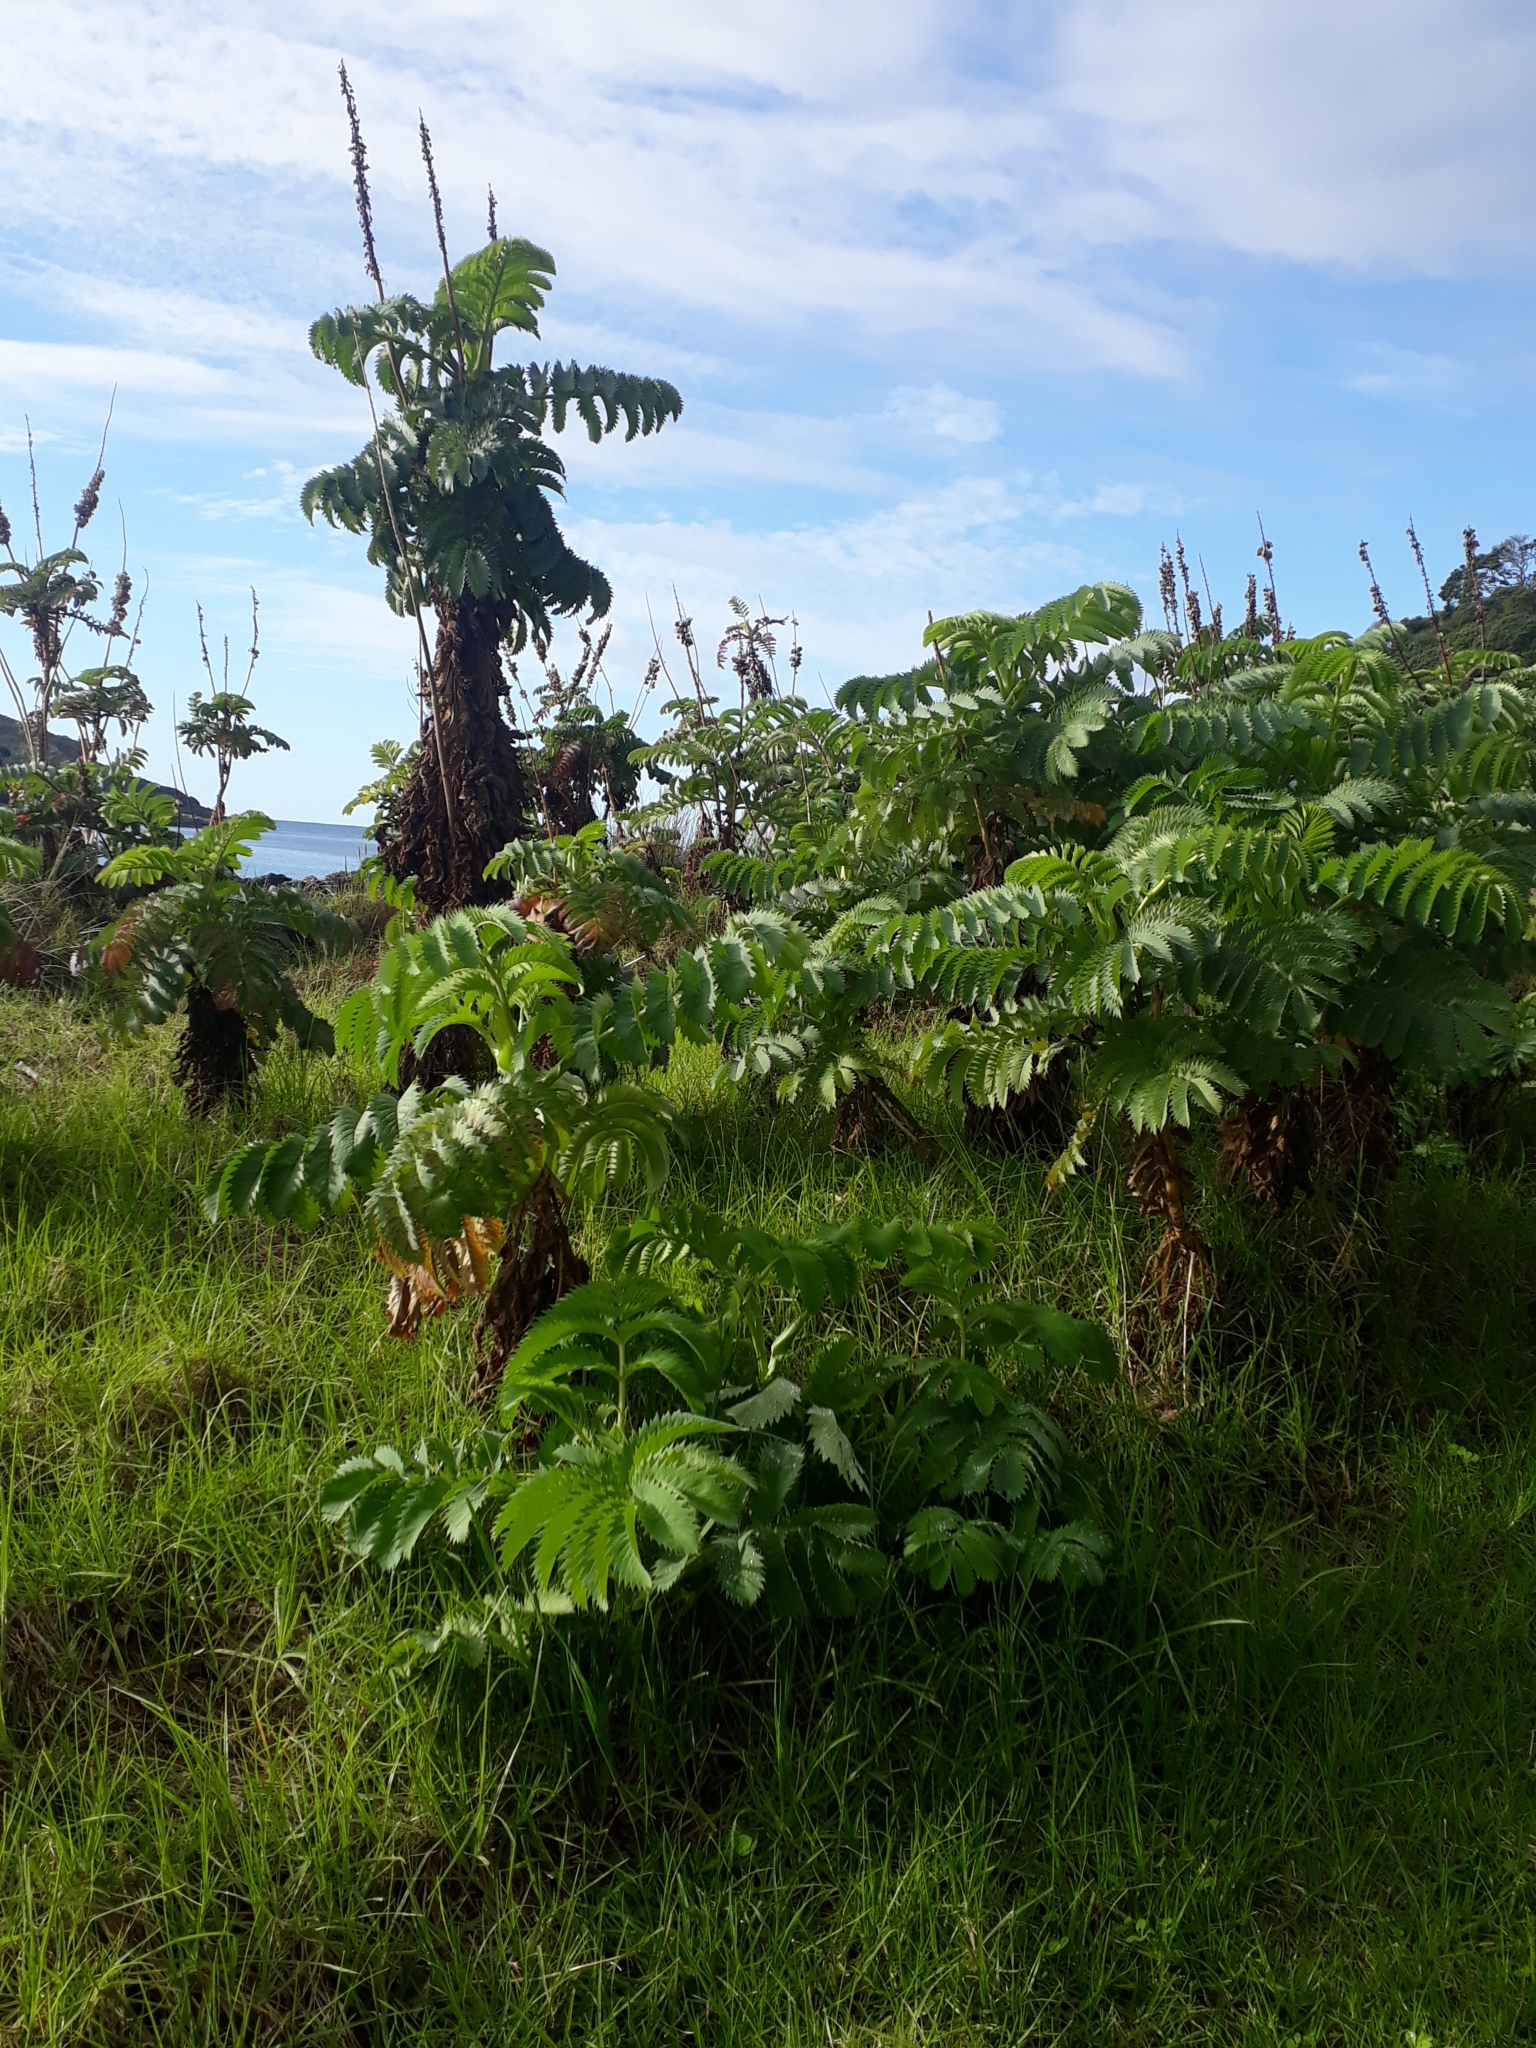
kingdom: Plantae
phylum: Tracheophyta
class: Magnoliopsida
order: Geraniales
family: Melianthaceae
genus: Melianthus
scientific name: Melianthus major
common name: Honey-flower
